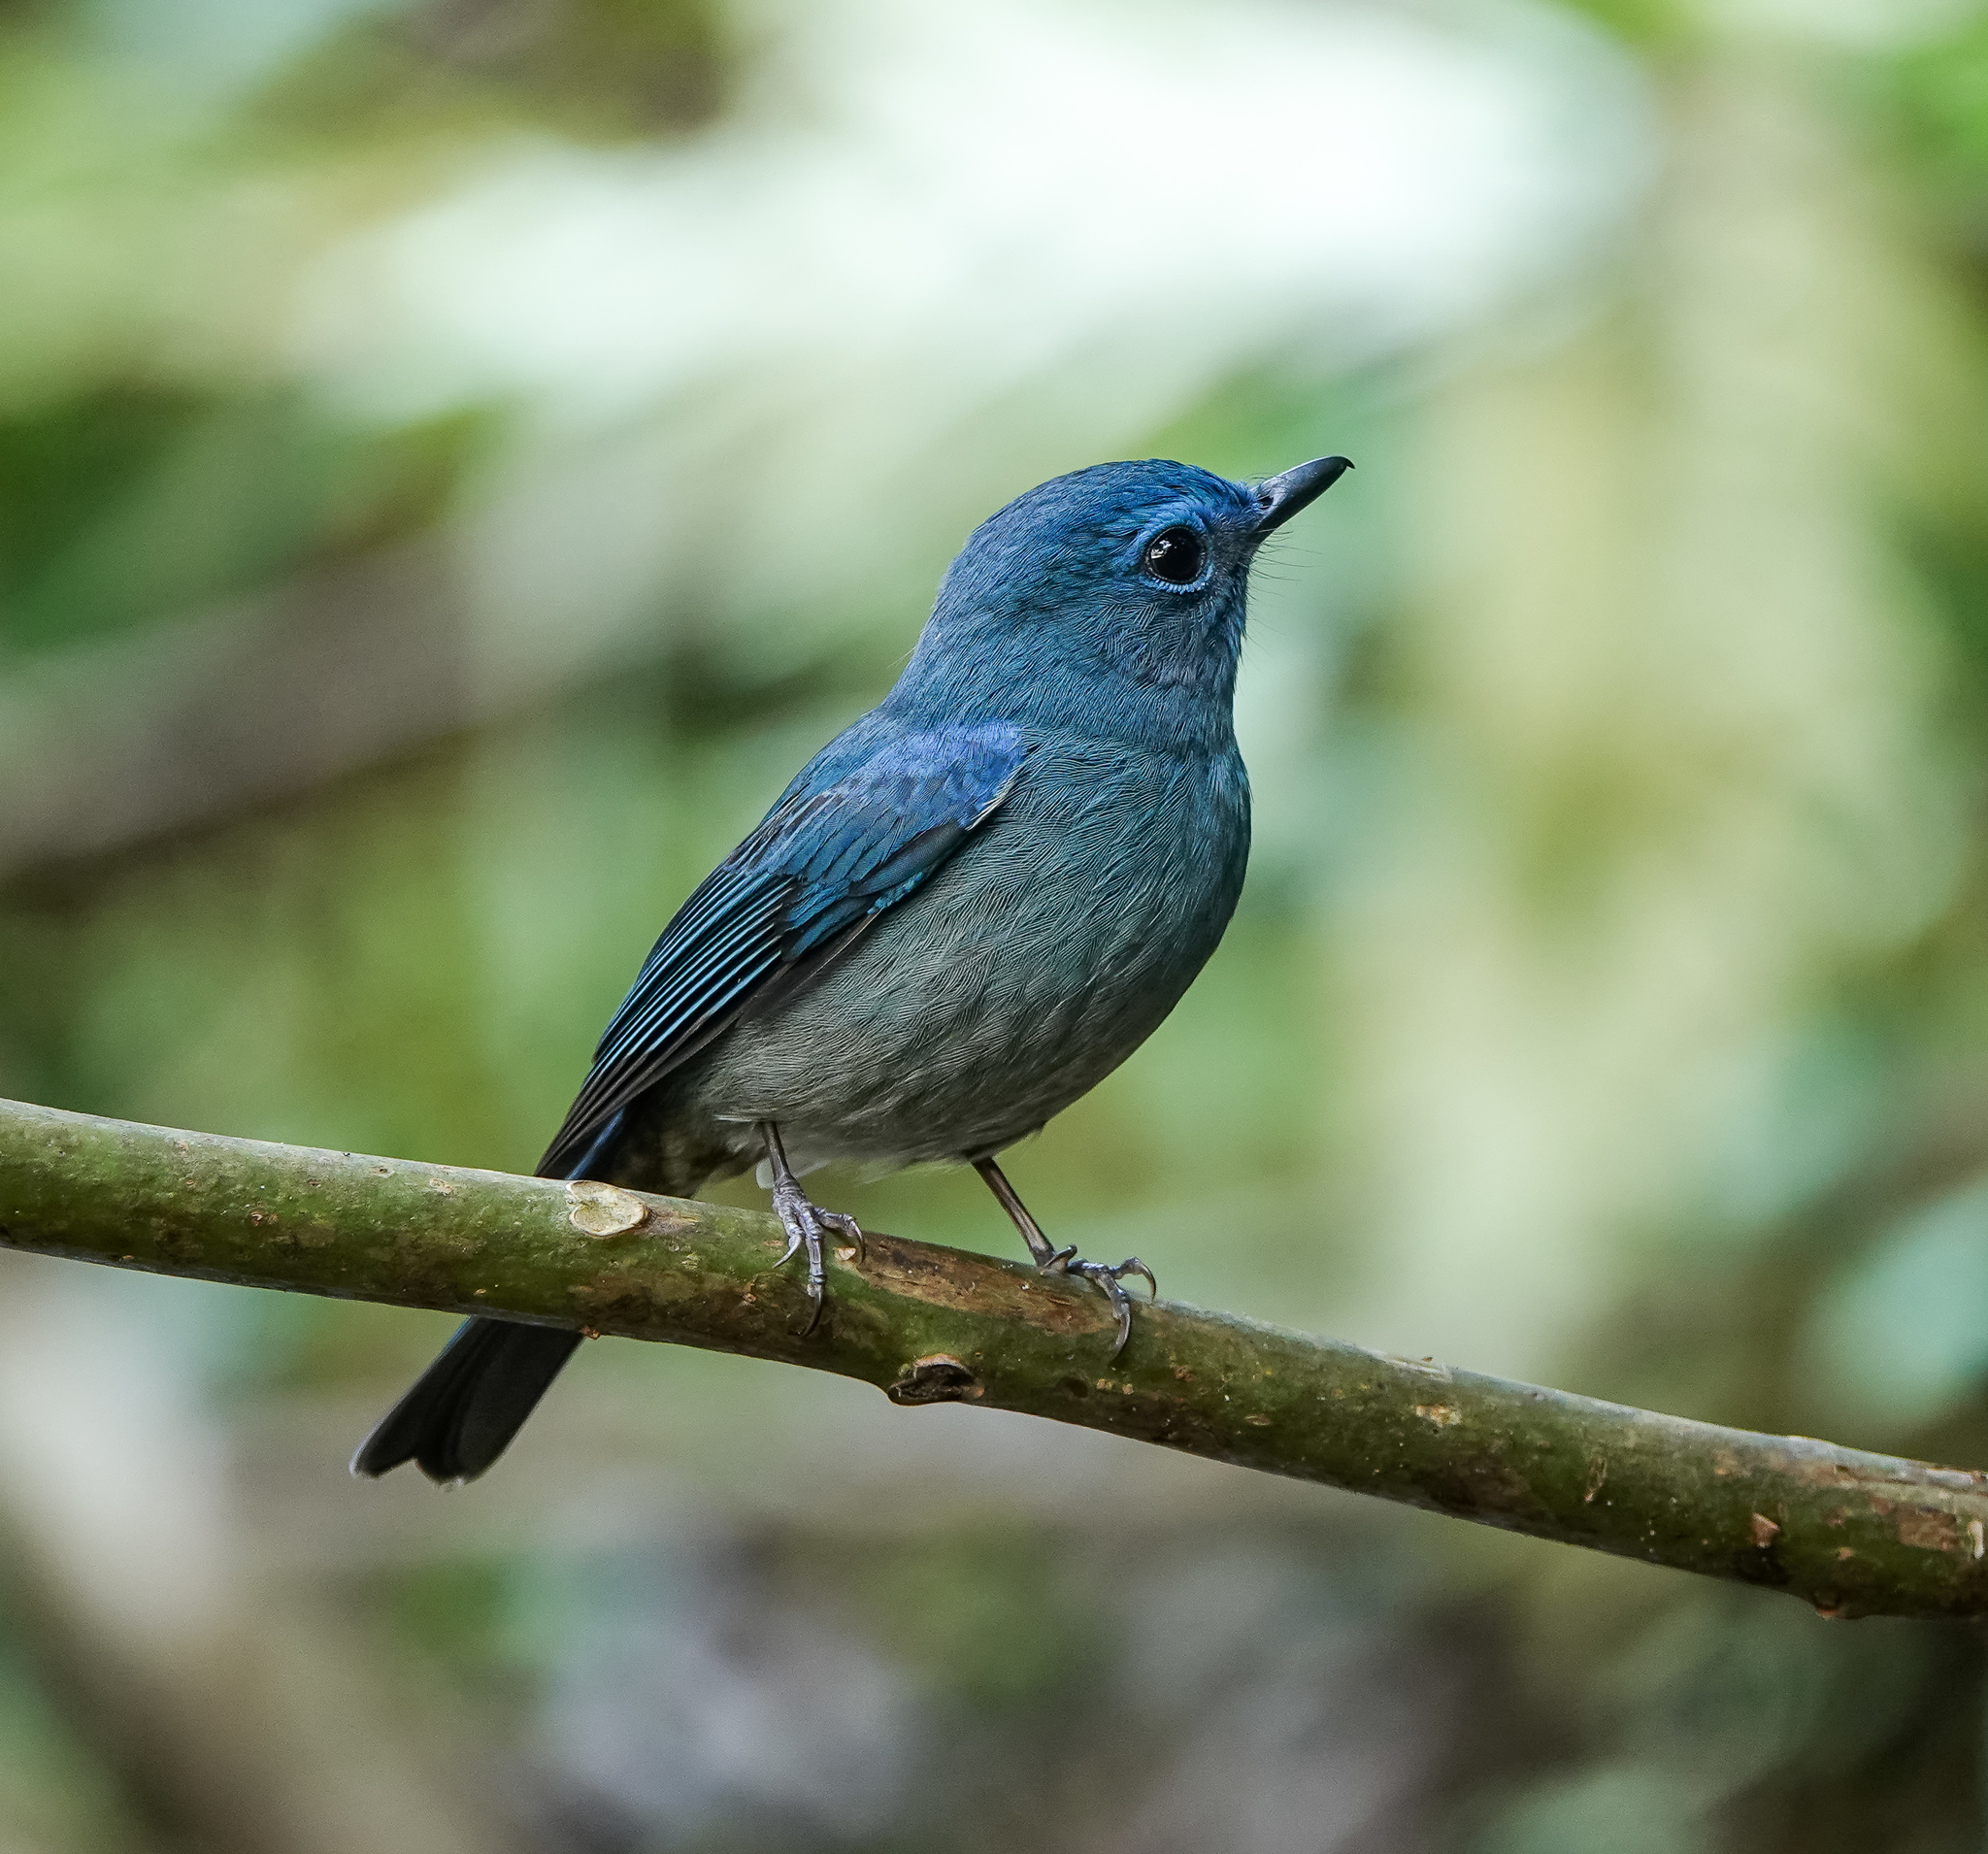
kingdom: Animalia
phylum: Chordata
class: Aves
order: Passeriformes
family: Muscicapidae
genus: Cyornis
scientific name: Cyornis unicolor
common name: Pale blue flycatcher
